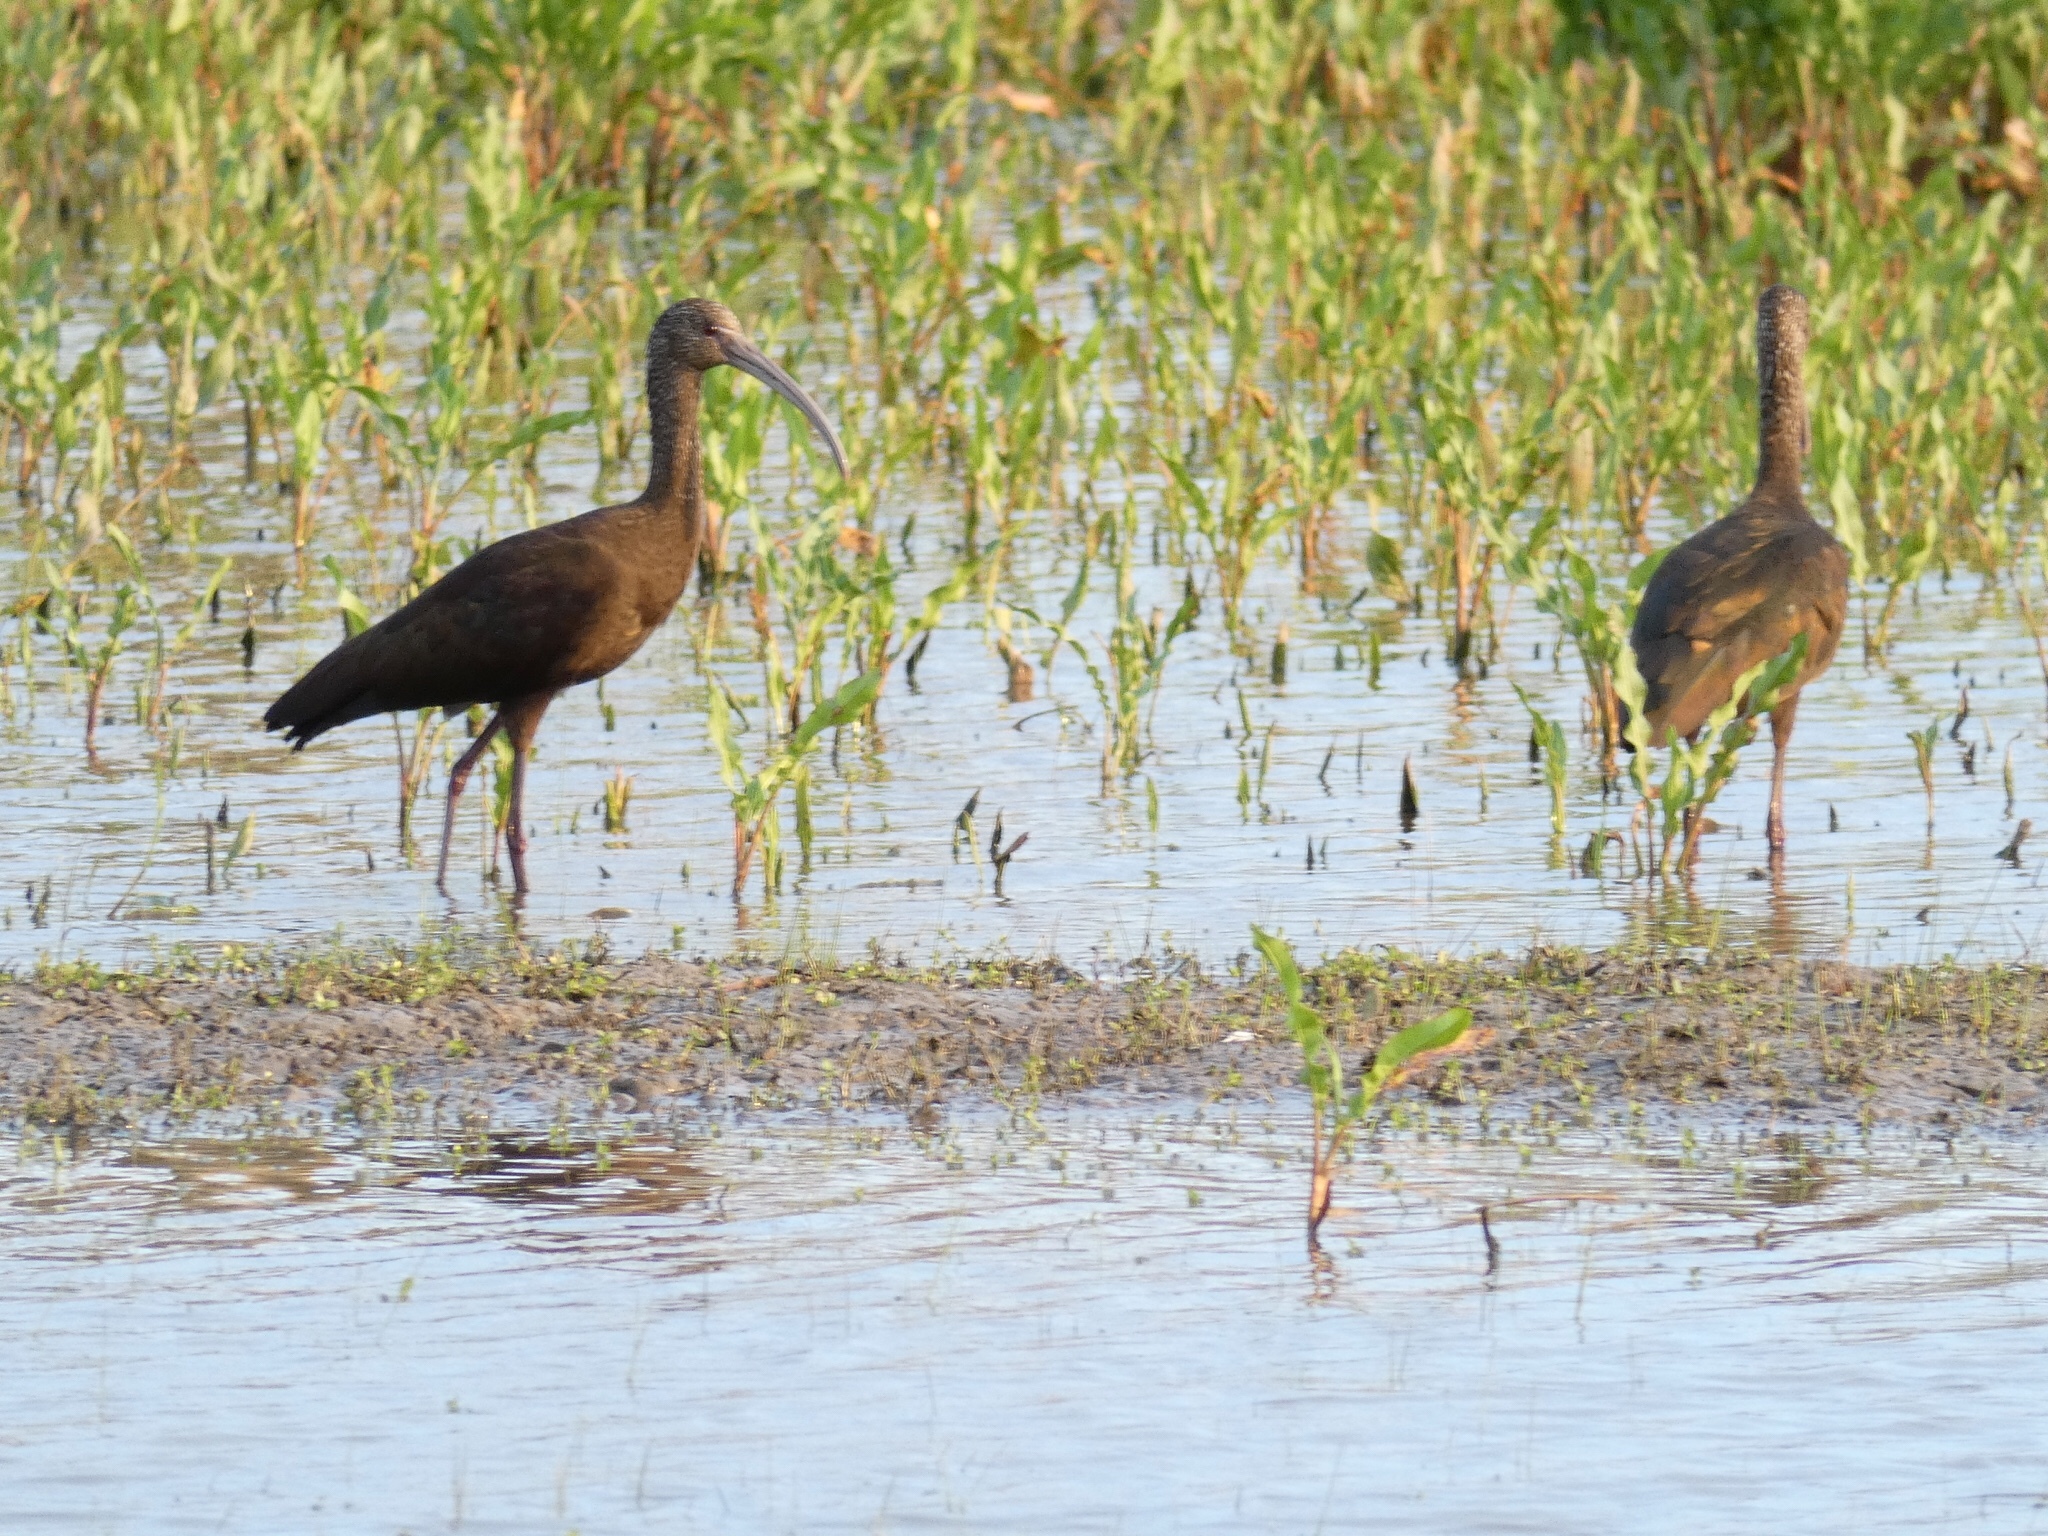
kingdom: Animalia
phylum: Chordata
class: Aves
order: Pelecaniformes
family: Threskiornithidae
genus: Plegadis
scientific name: Plegadis chihi
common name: White-faced ibis
